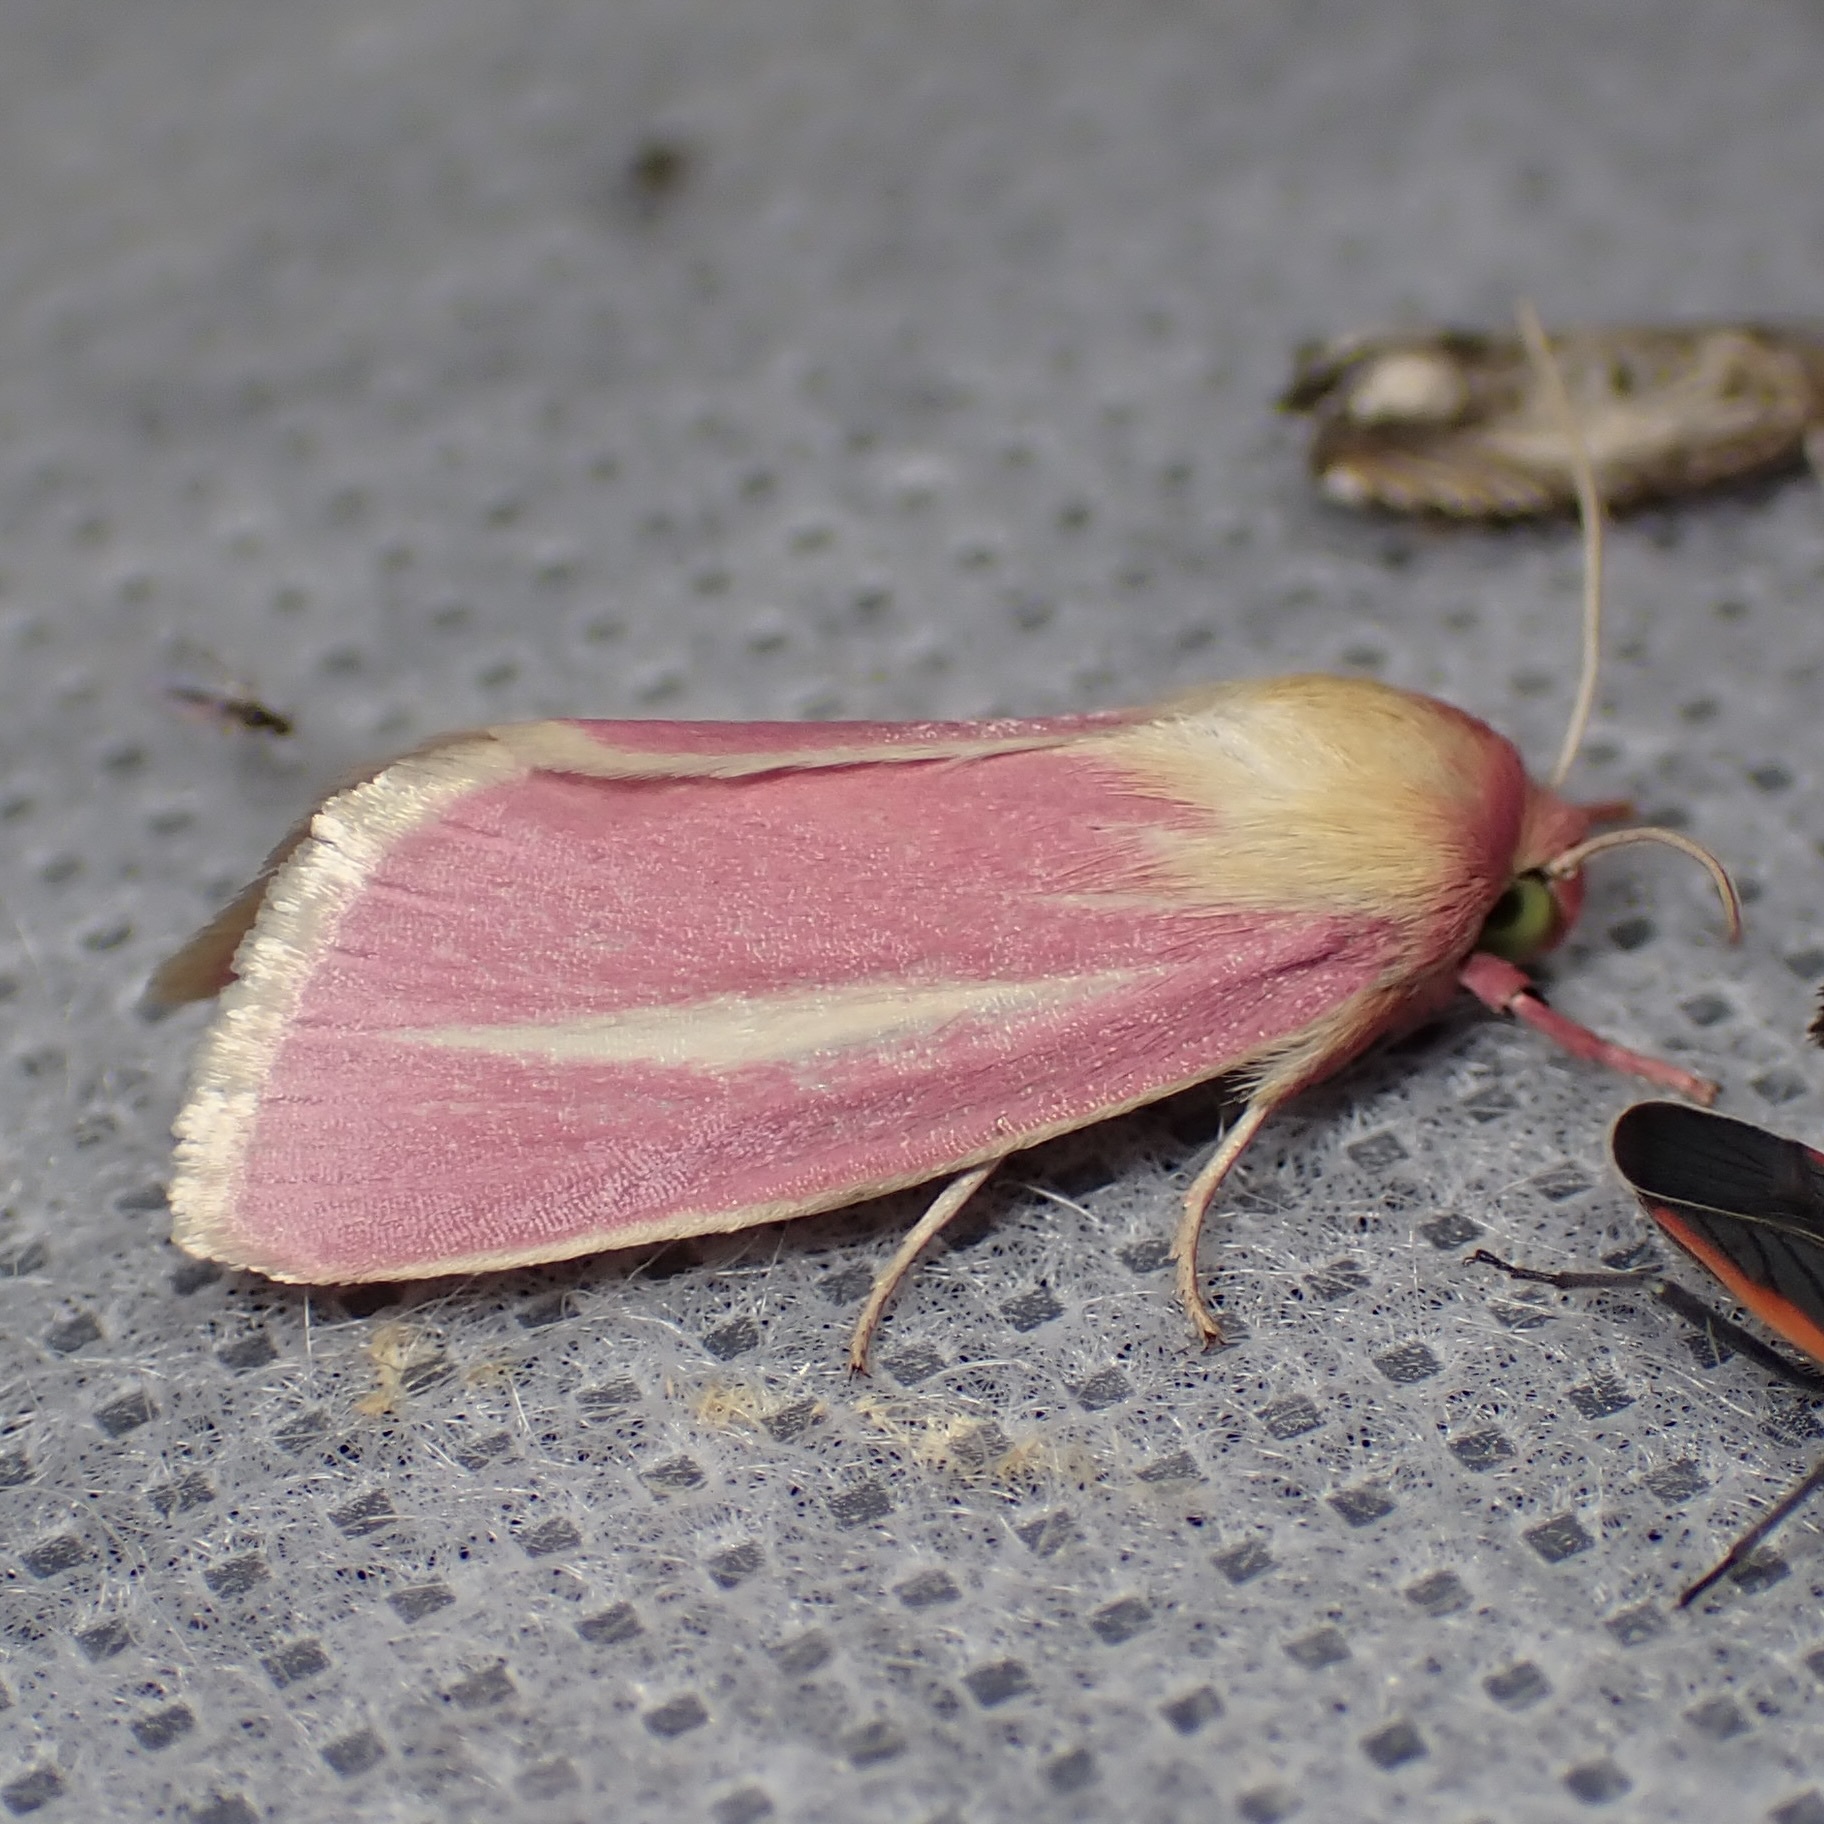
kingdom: Animalia
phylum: Arthropoda
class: Insecta
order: Lepidoptera
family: Noctuidae
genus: Heliocheilus
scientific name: Heliocheilus julia
